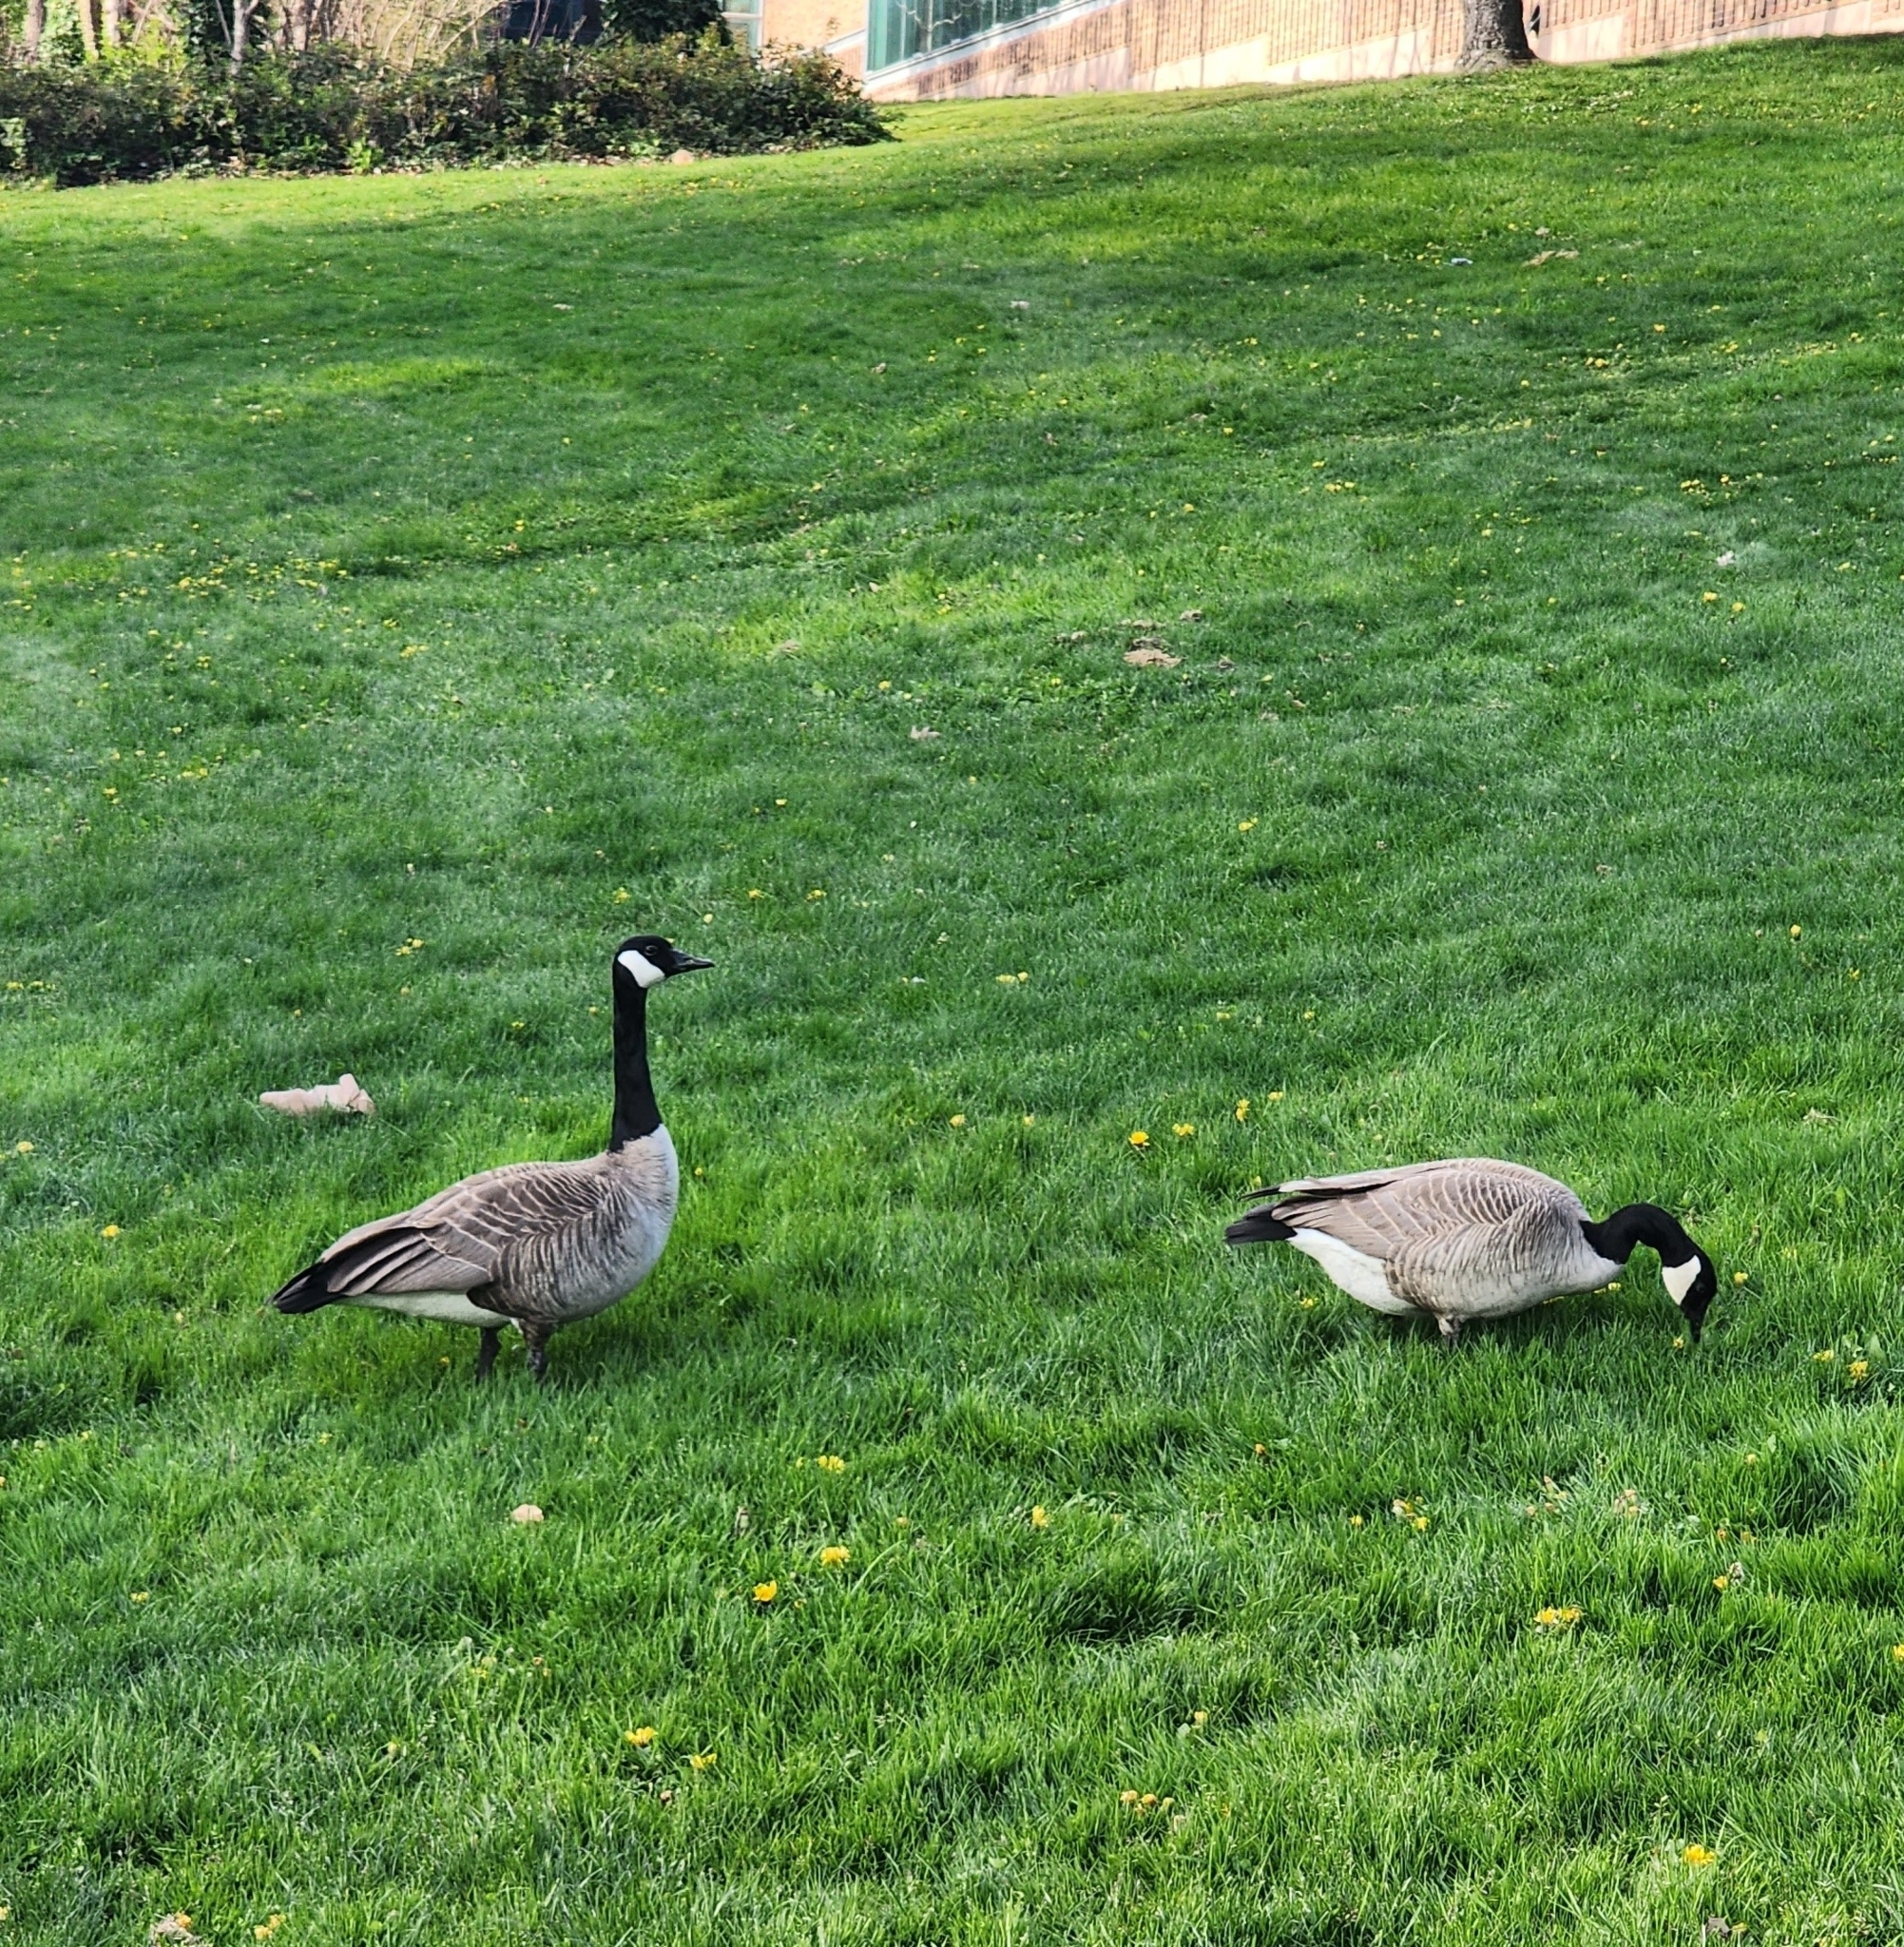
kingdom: Animalia
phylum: Chordata
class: Aves
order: Anseriformes
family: Anatidae
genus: Branta
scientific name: Branta canadensis
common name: Canada goose
